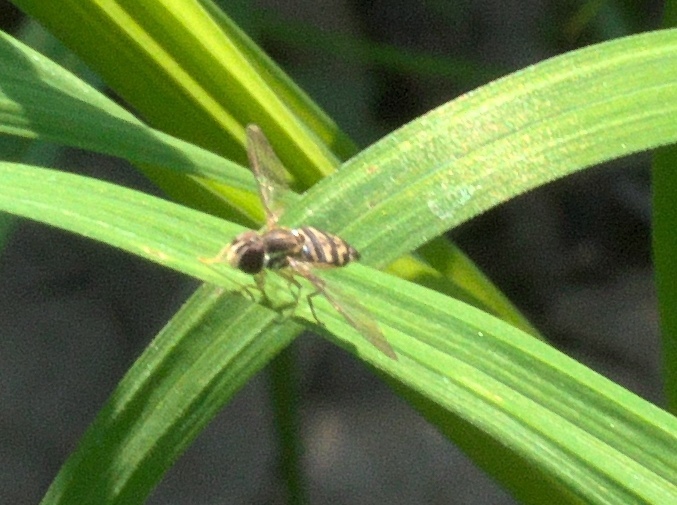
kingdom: Animalia
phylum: Arthropoda
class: Insecta
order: Diptera
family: Syrphidae
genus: Toxomerus
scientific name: Toxomerus geminatus
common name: Eastern calligrapher
